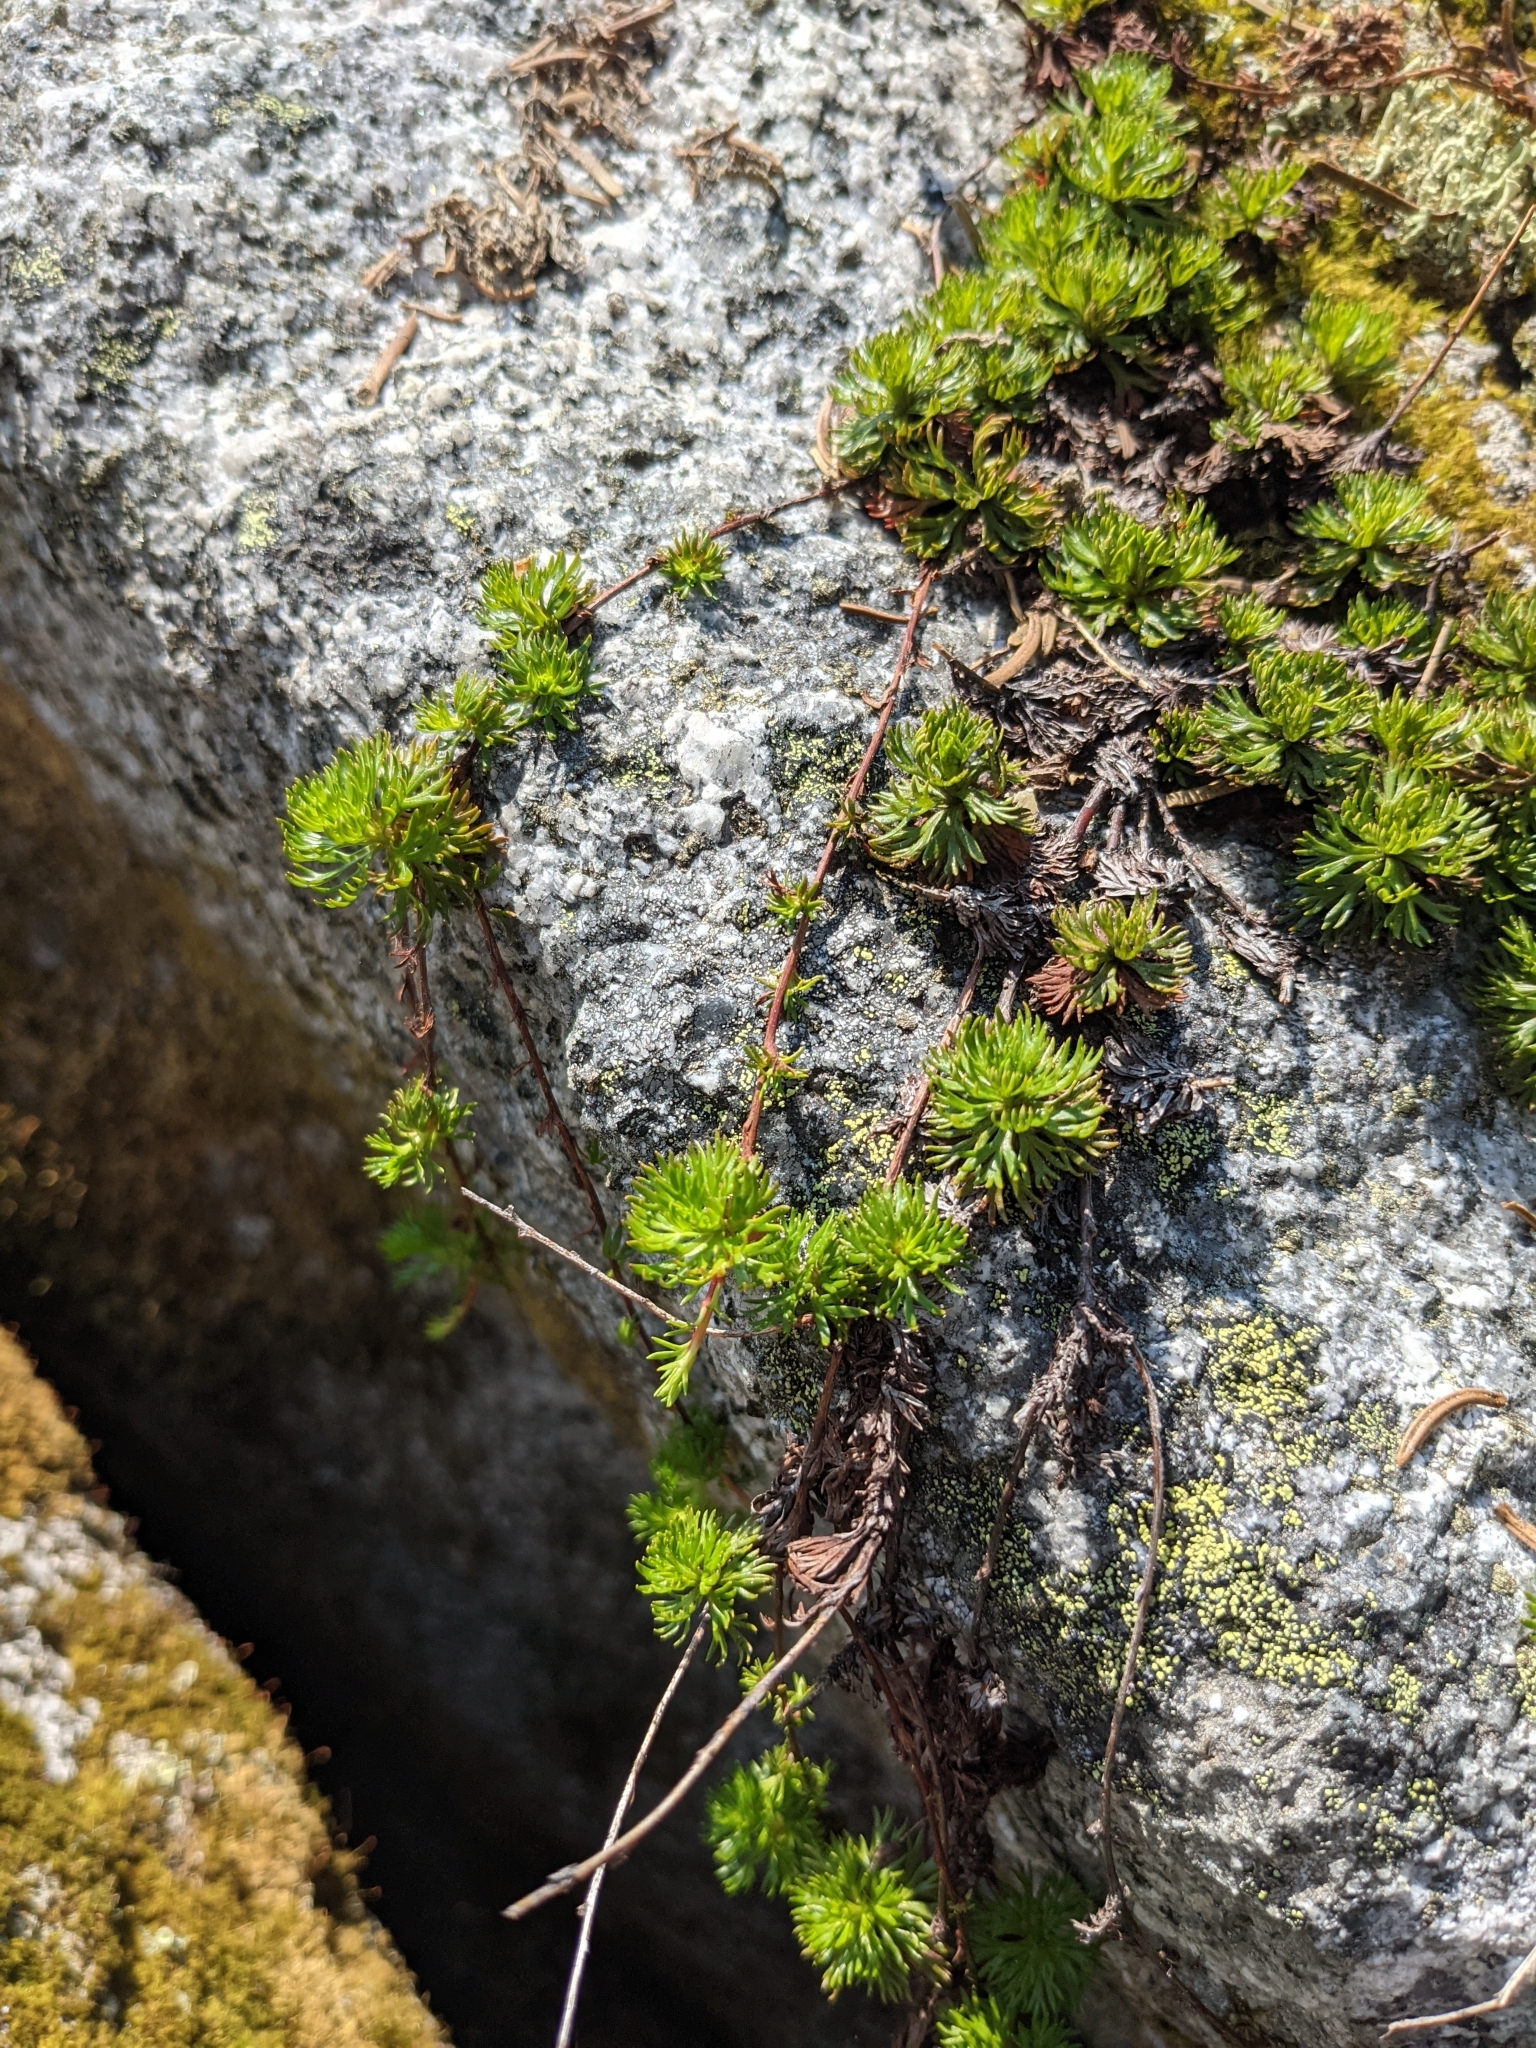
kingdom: Plantae
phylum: Tracheophyta
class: Magnoliopsida
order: Rosales
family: Rosaceae
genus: Luetkea
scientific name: Luetkea pectinata
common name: Partridgefoot
